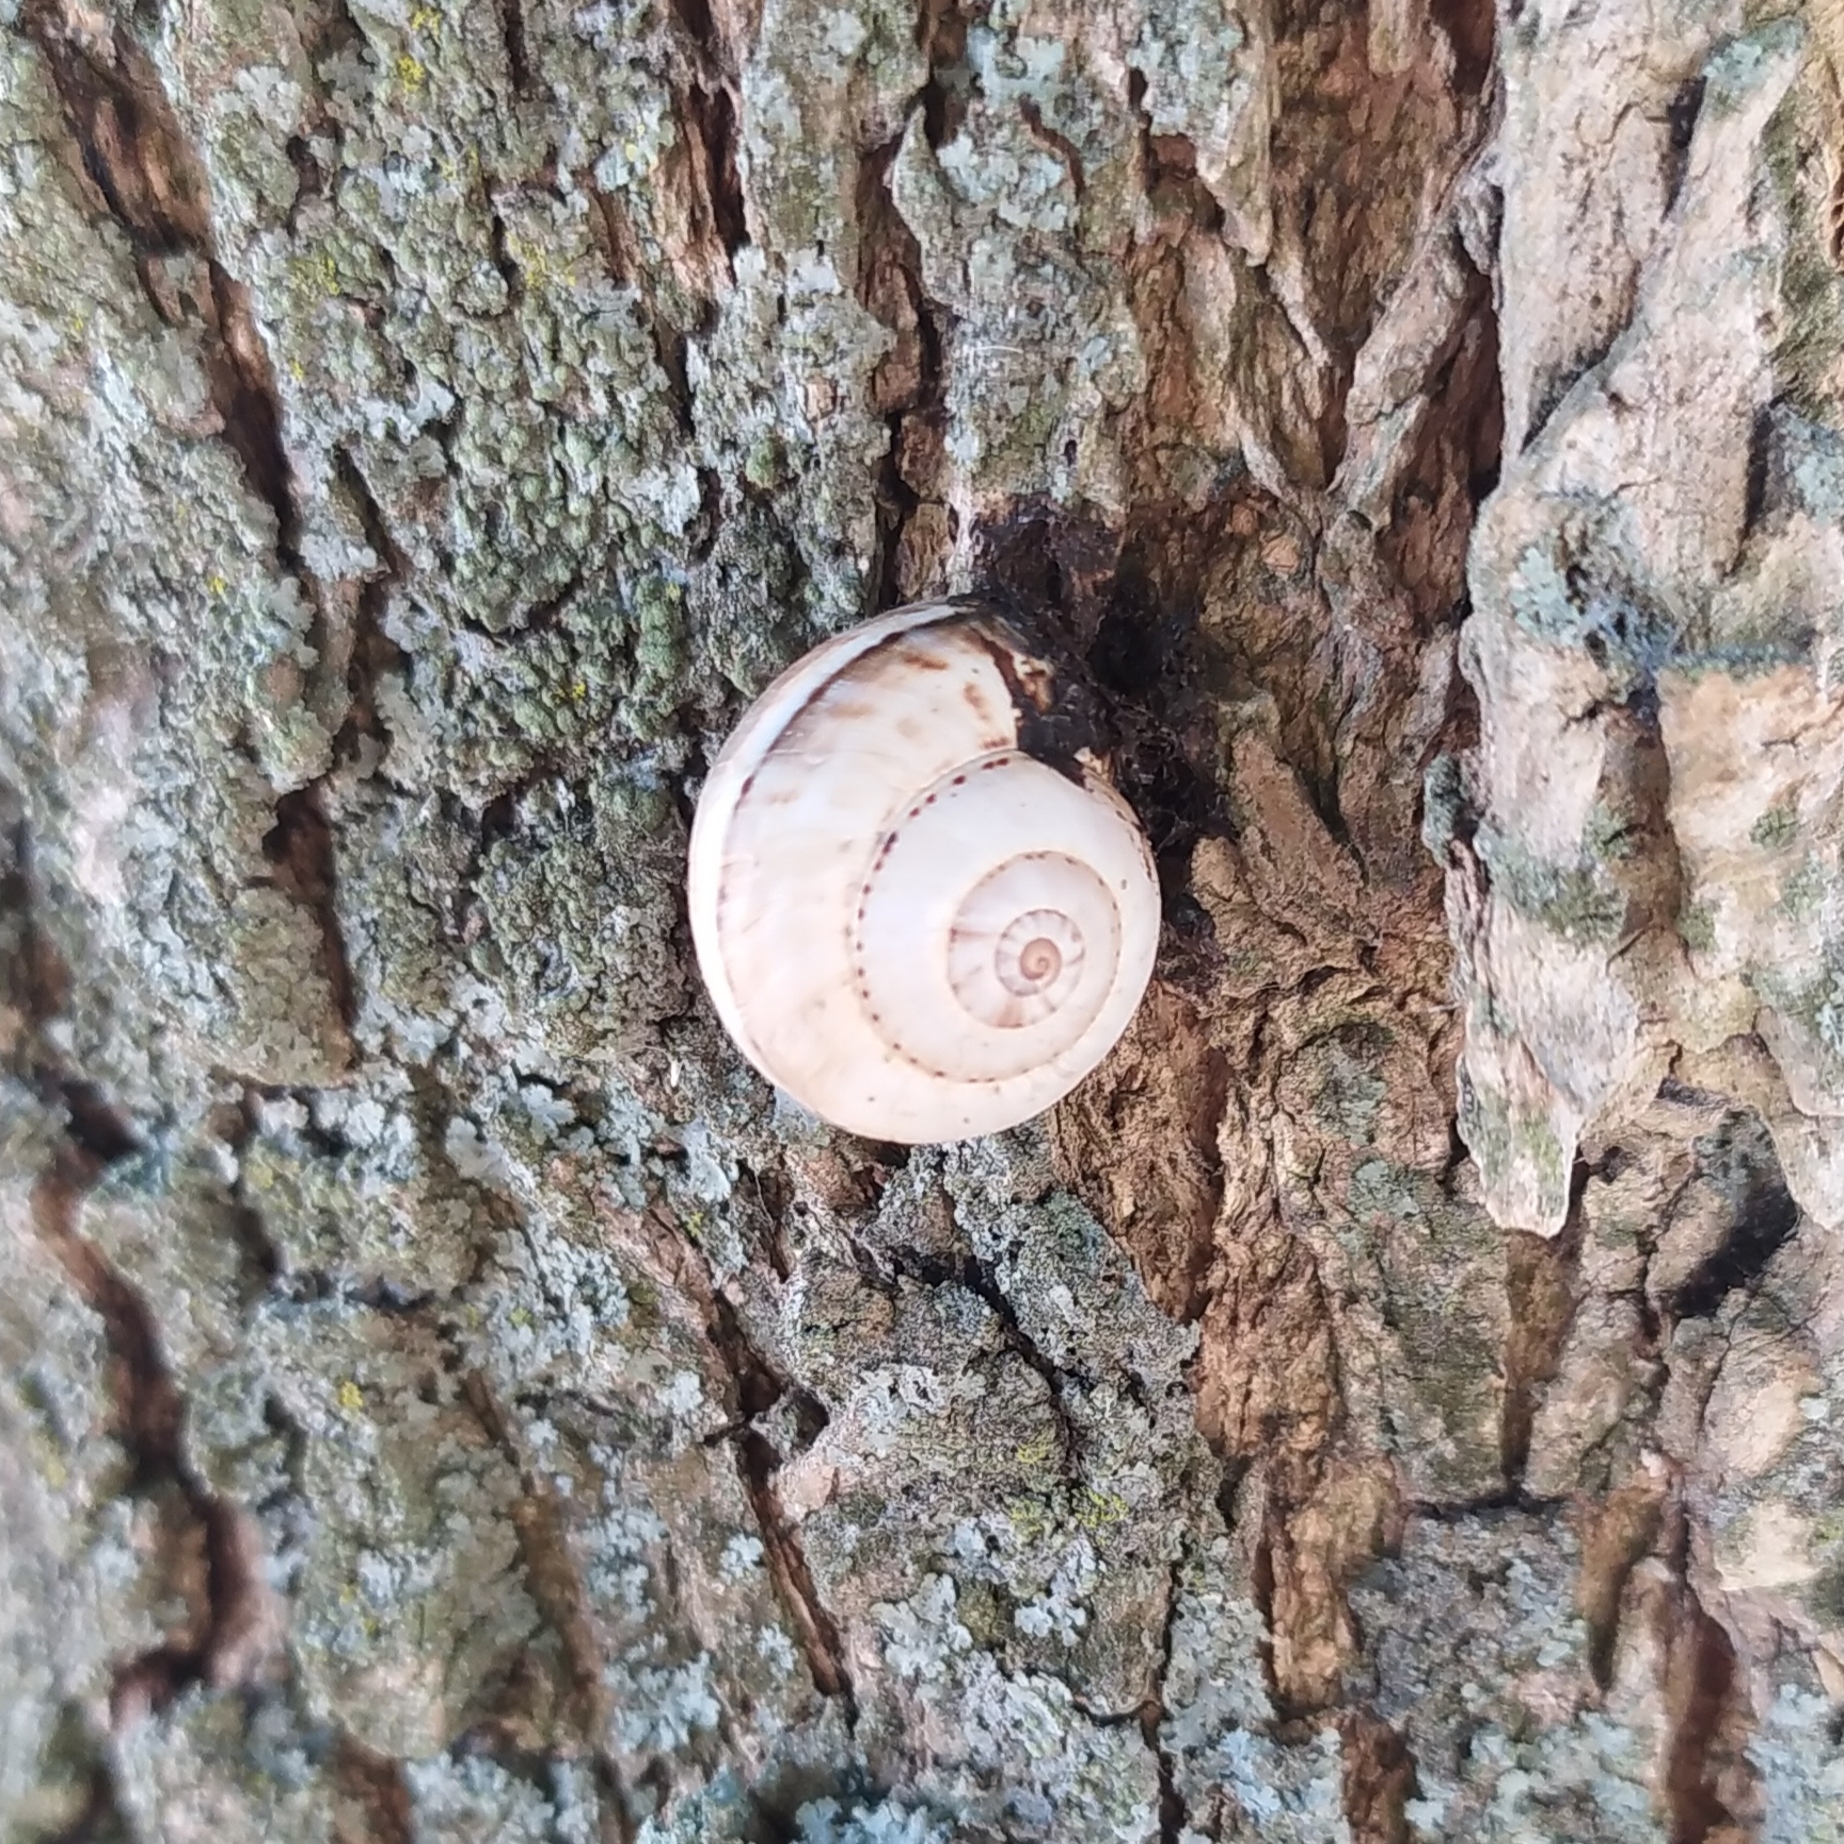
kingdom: Animalia
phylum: Mollusca
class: Gastropoda
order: Stylommatophora
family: Helicidae
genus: Theba
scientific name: Theba pisana
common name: White snail
